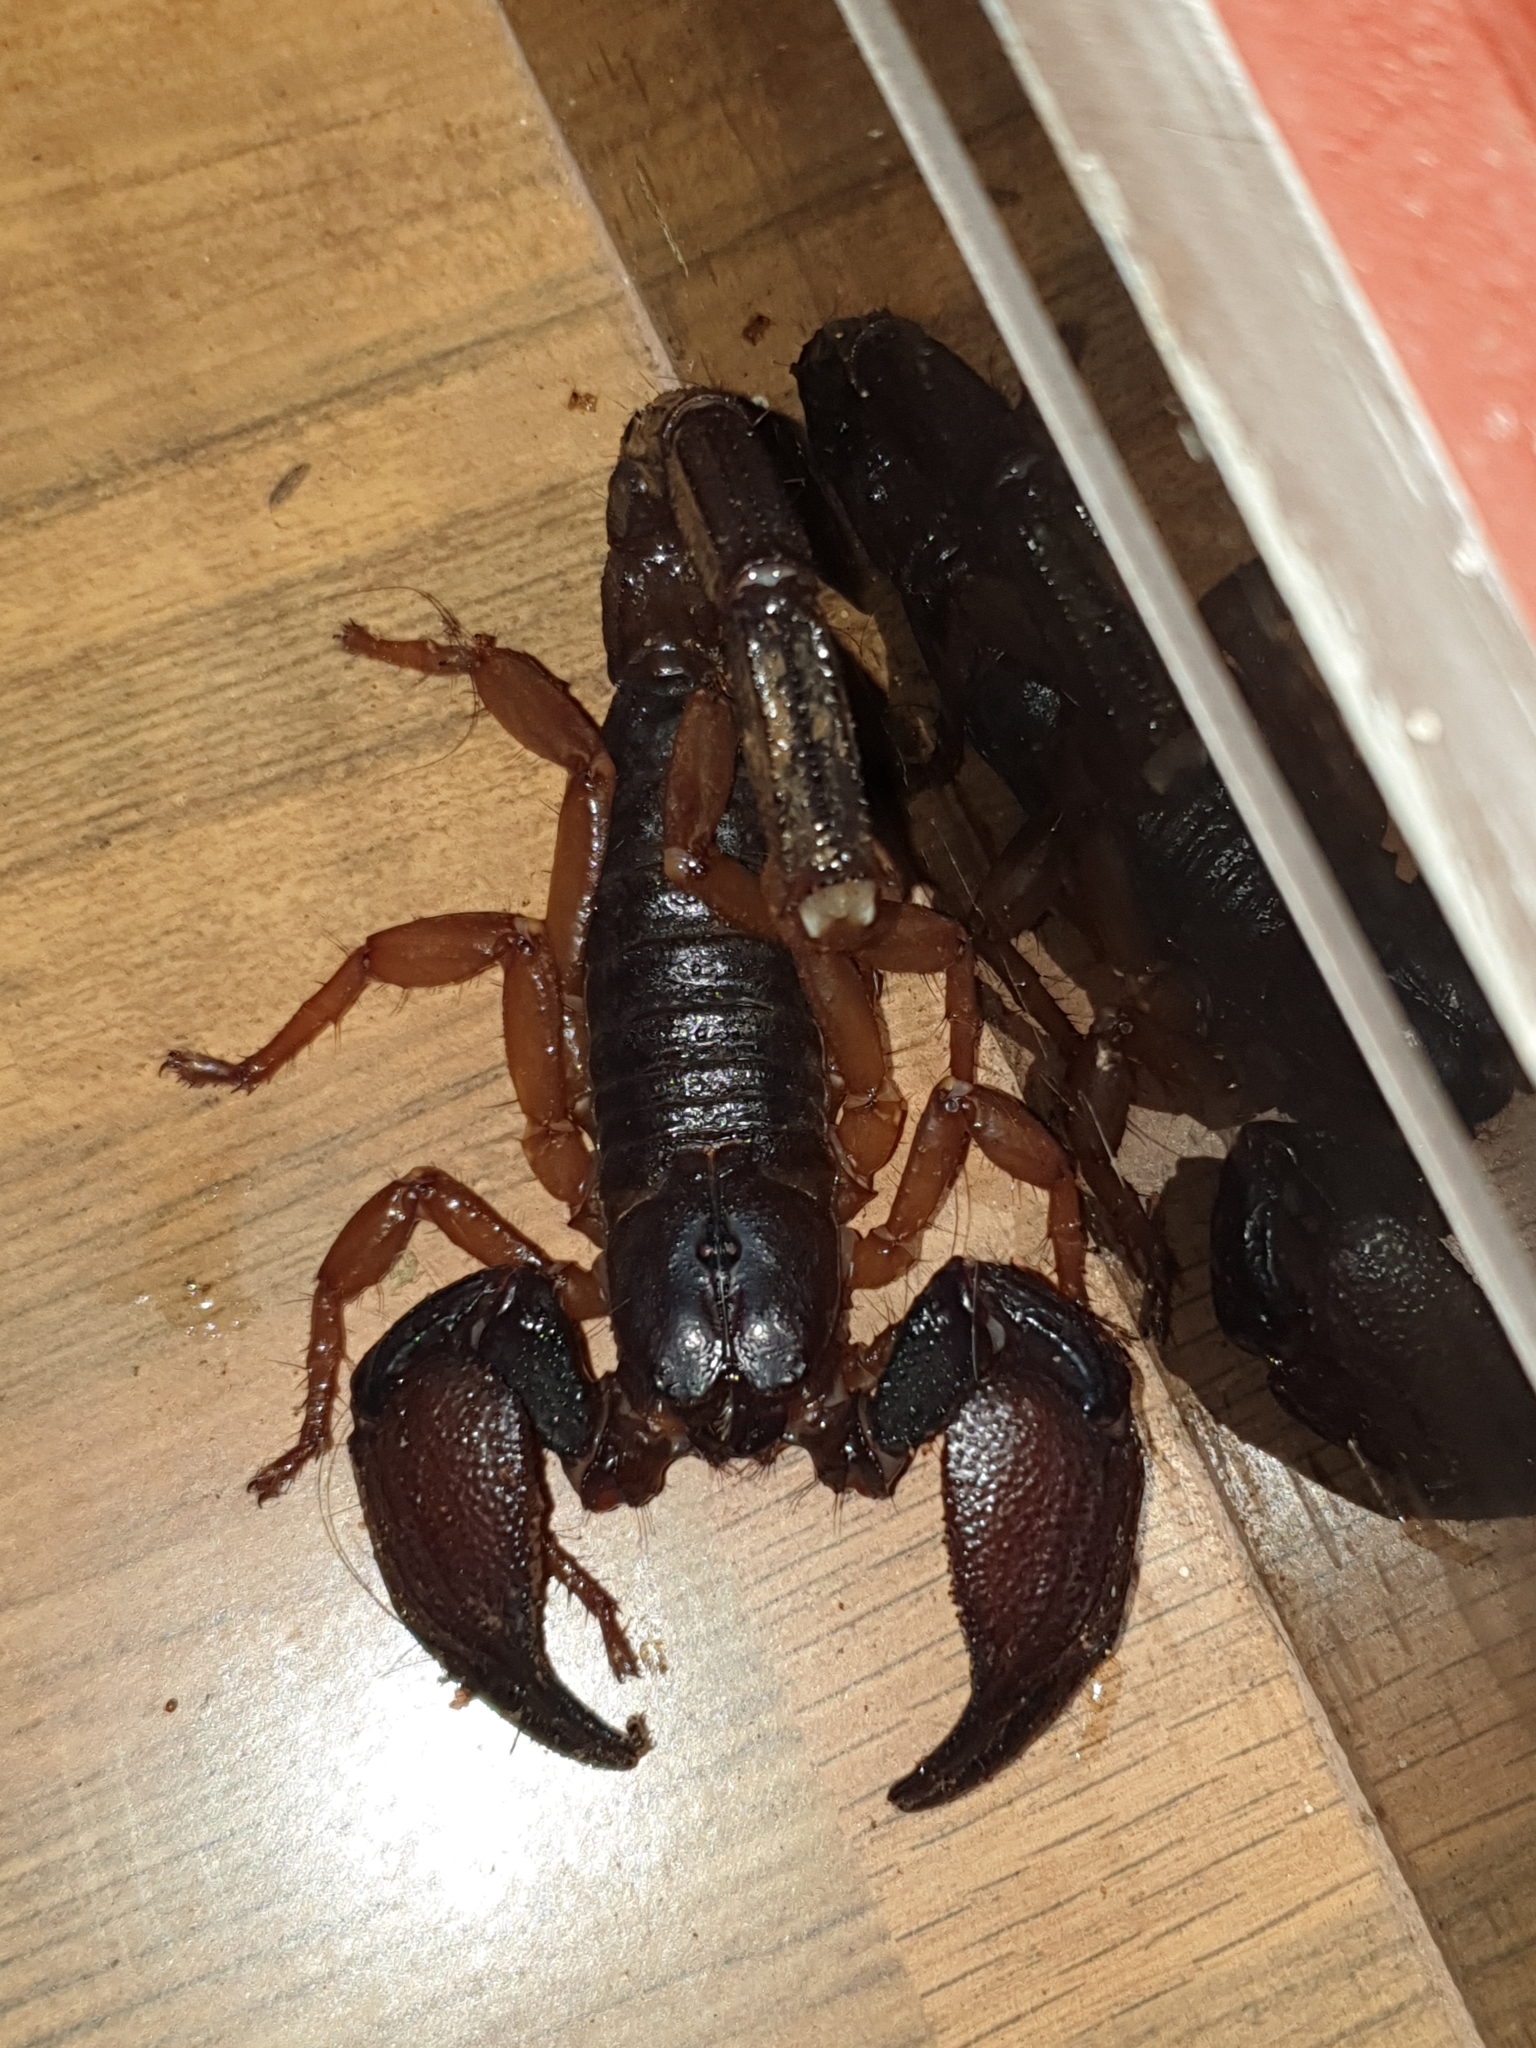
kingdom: Animalia
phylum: Arthropoda
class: Arachnida
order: Scorpiones
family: Scorpionidae
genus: Gigantometrus
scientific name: Gigantometrus titanicus
